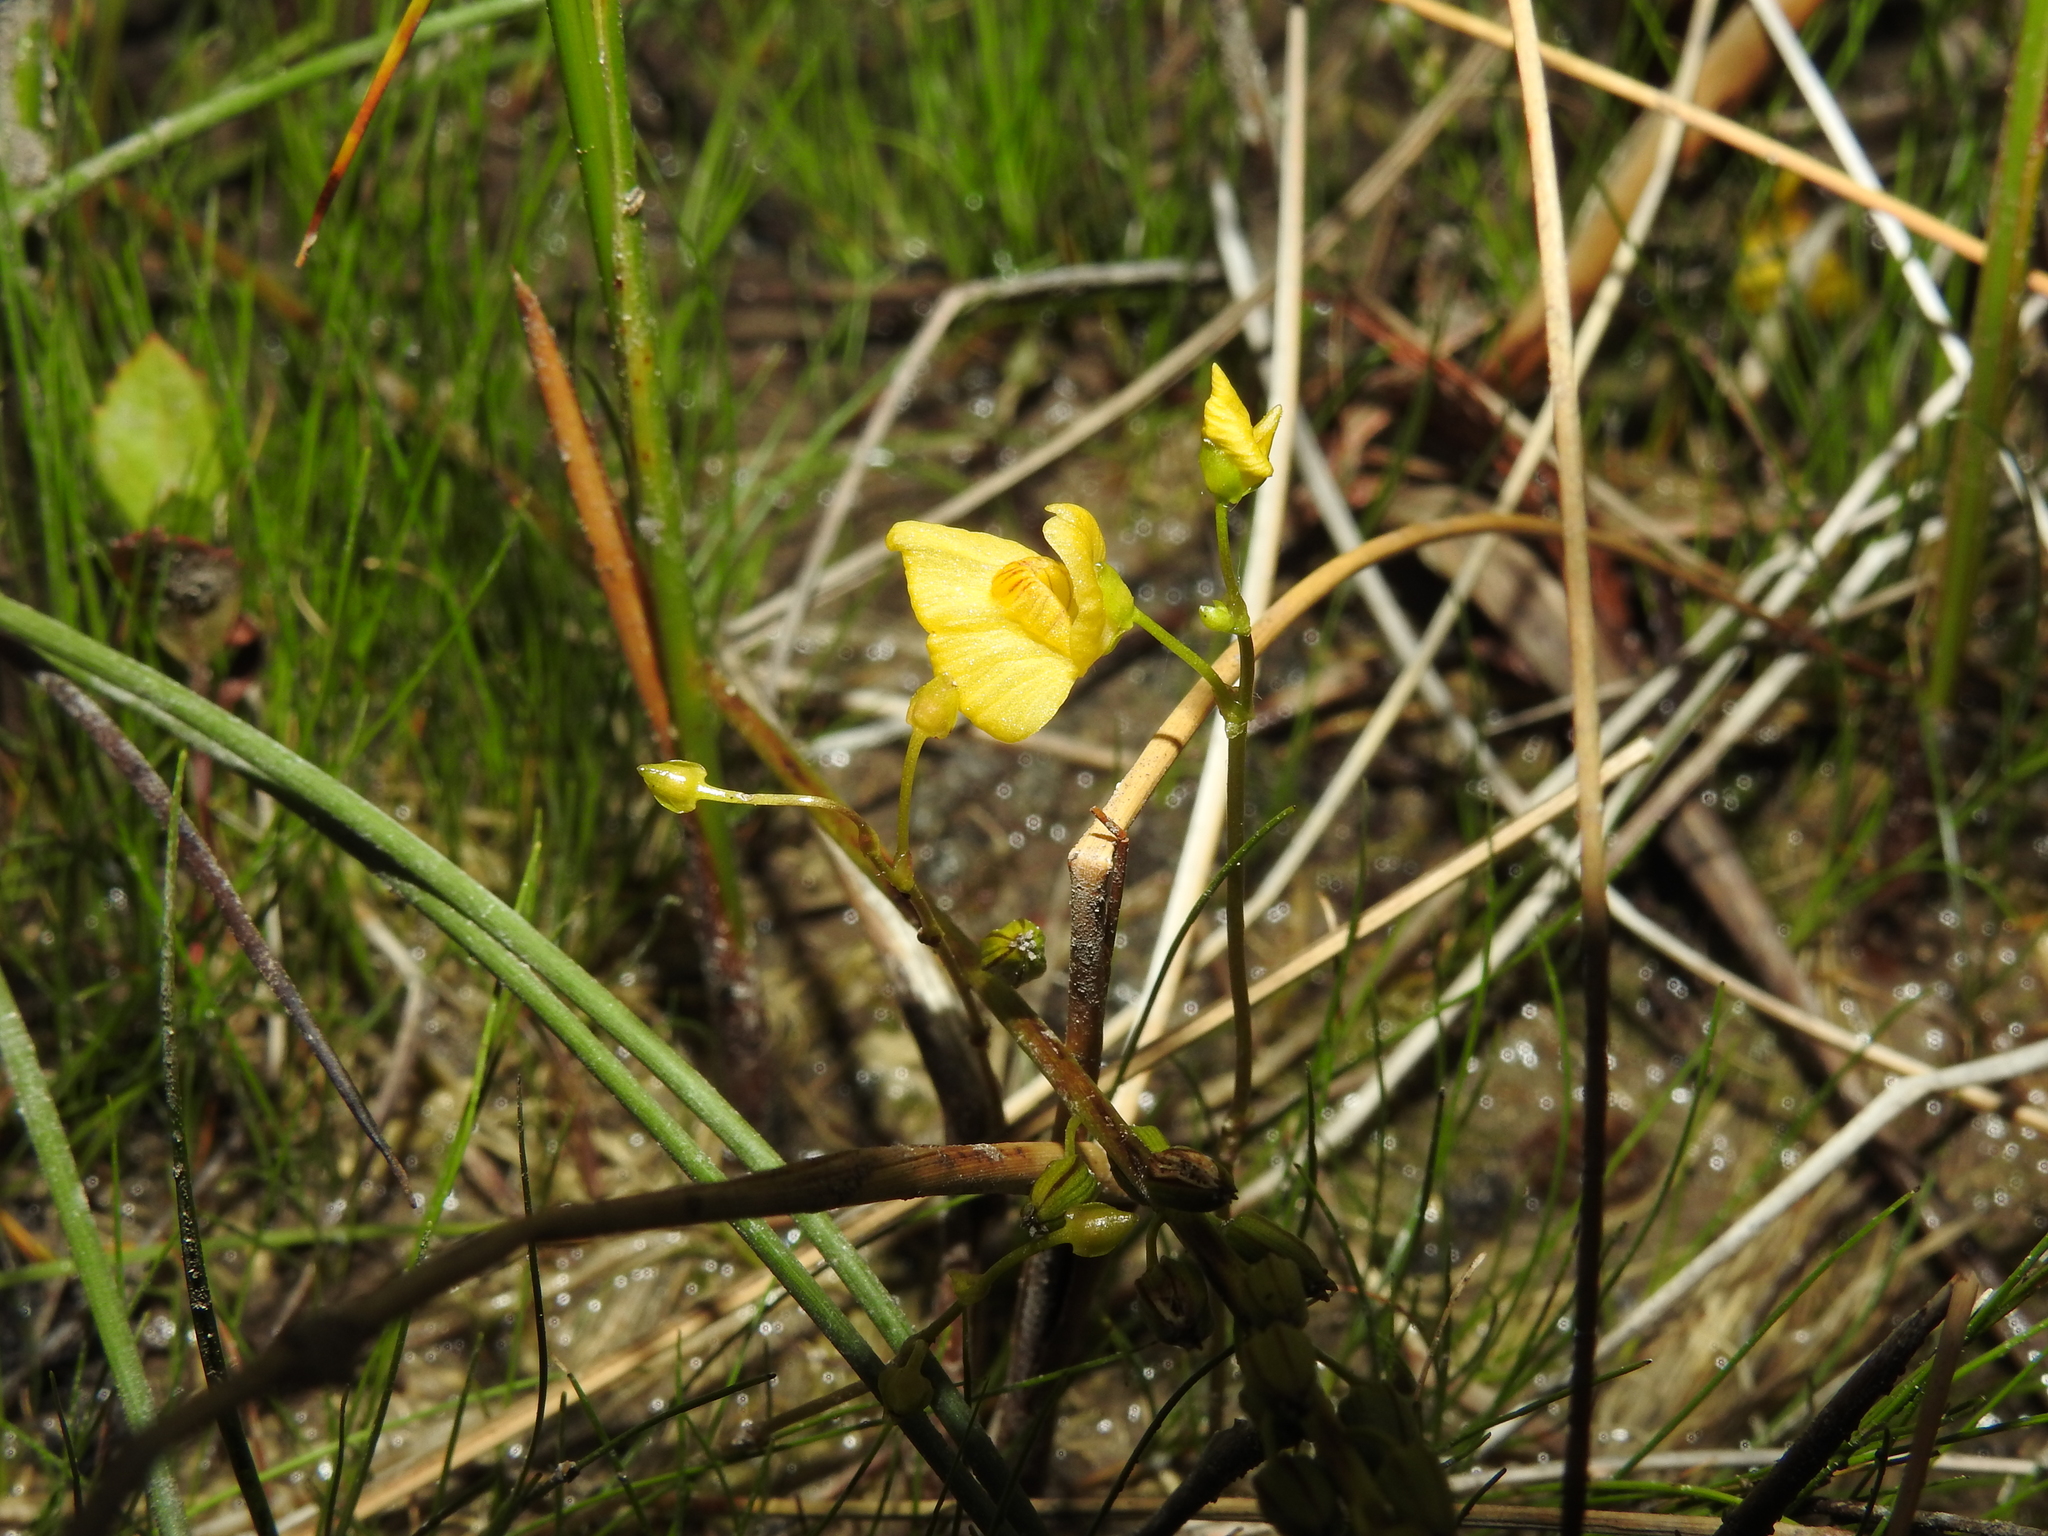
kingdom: Plantae
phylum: Tracheophyta
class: Magnoliopsida
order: Lamiales
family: Lentibulariaceae
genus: Utricularia
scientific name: Utricularia ochroleuca
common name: Pale bladderwort
